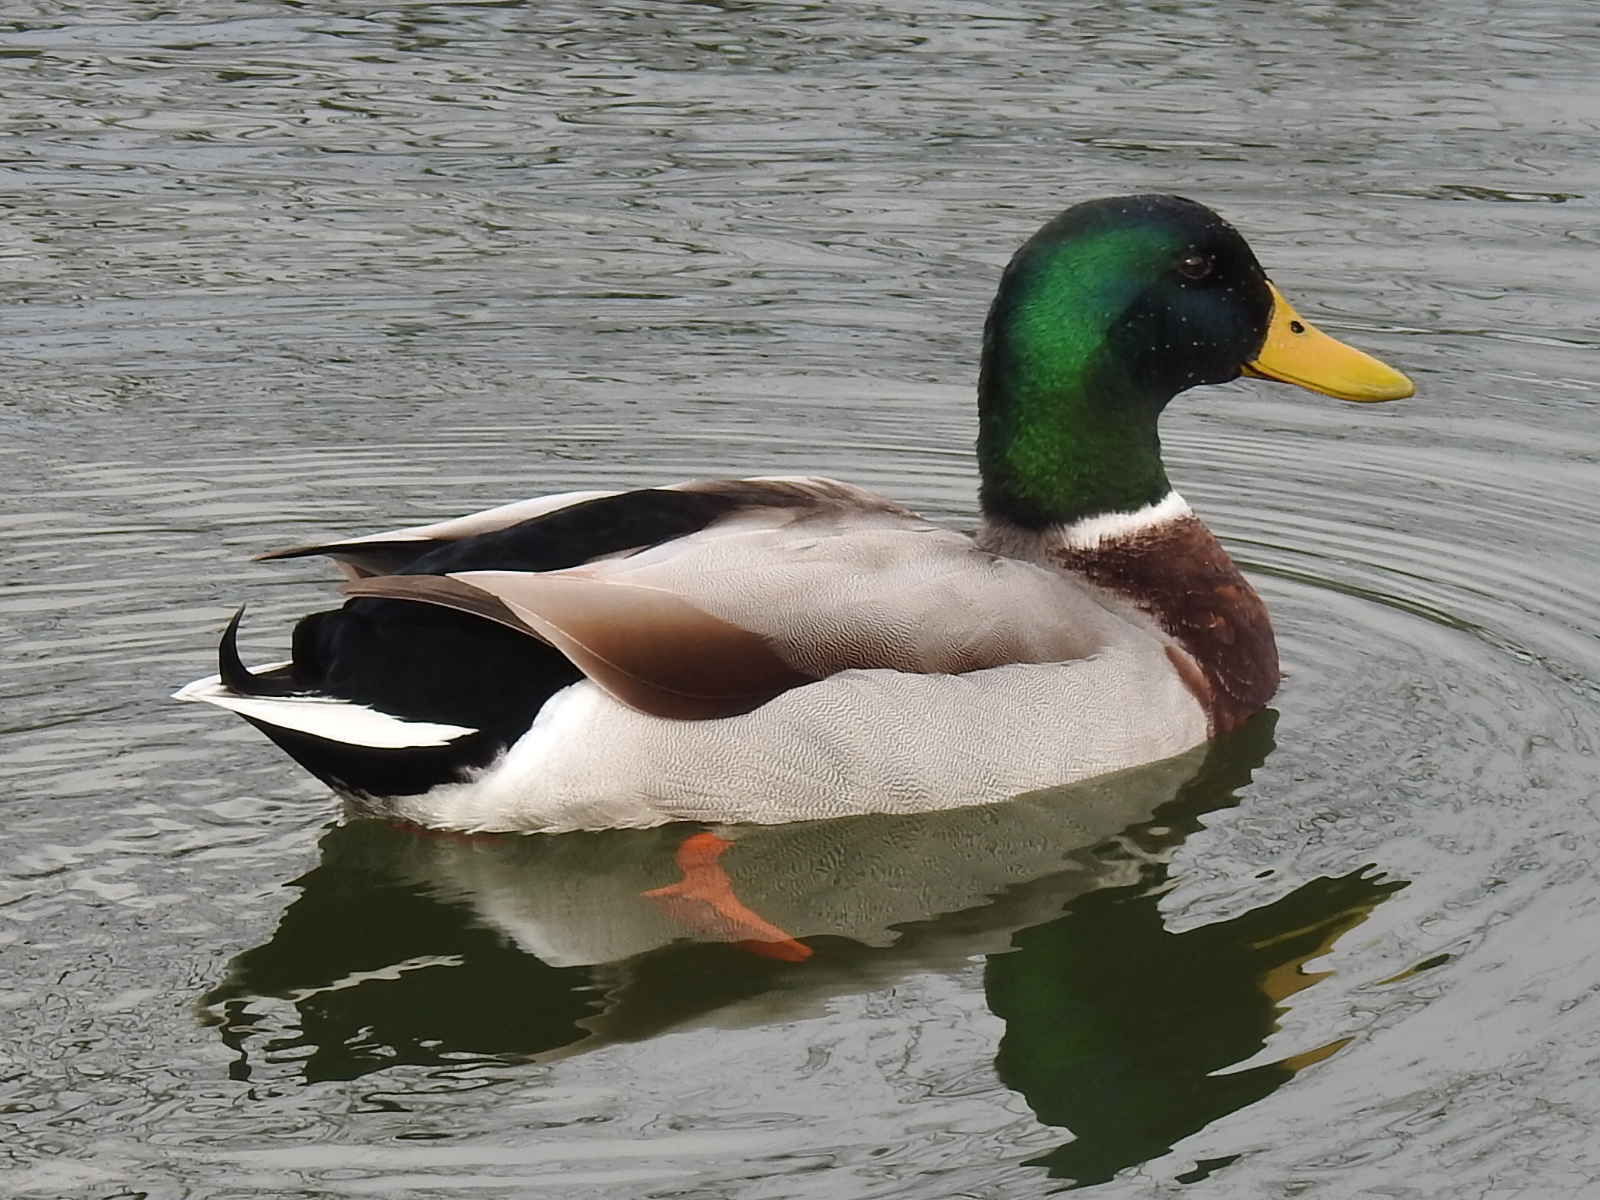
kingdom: Animalia
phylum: Chordata
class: Aves
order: Anseriformes
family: Anatidae
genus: Anas
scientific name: Anas platyrhynchos
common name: Mallard
